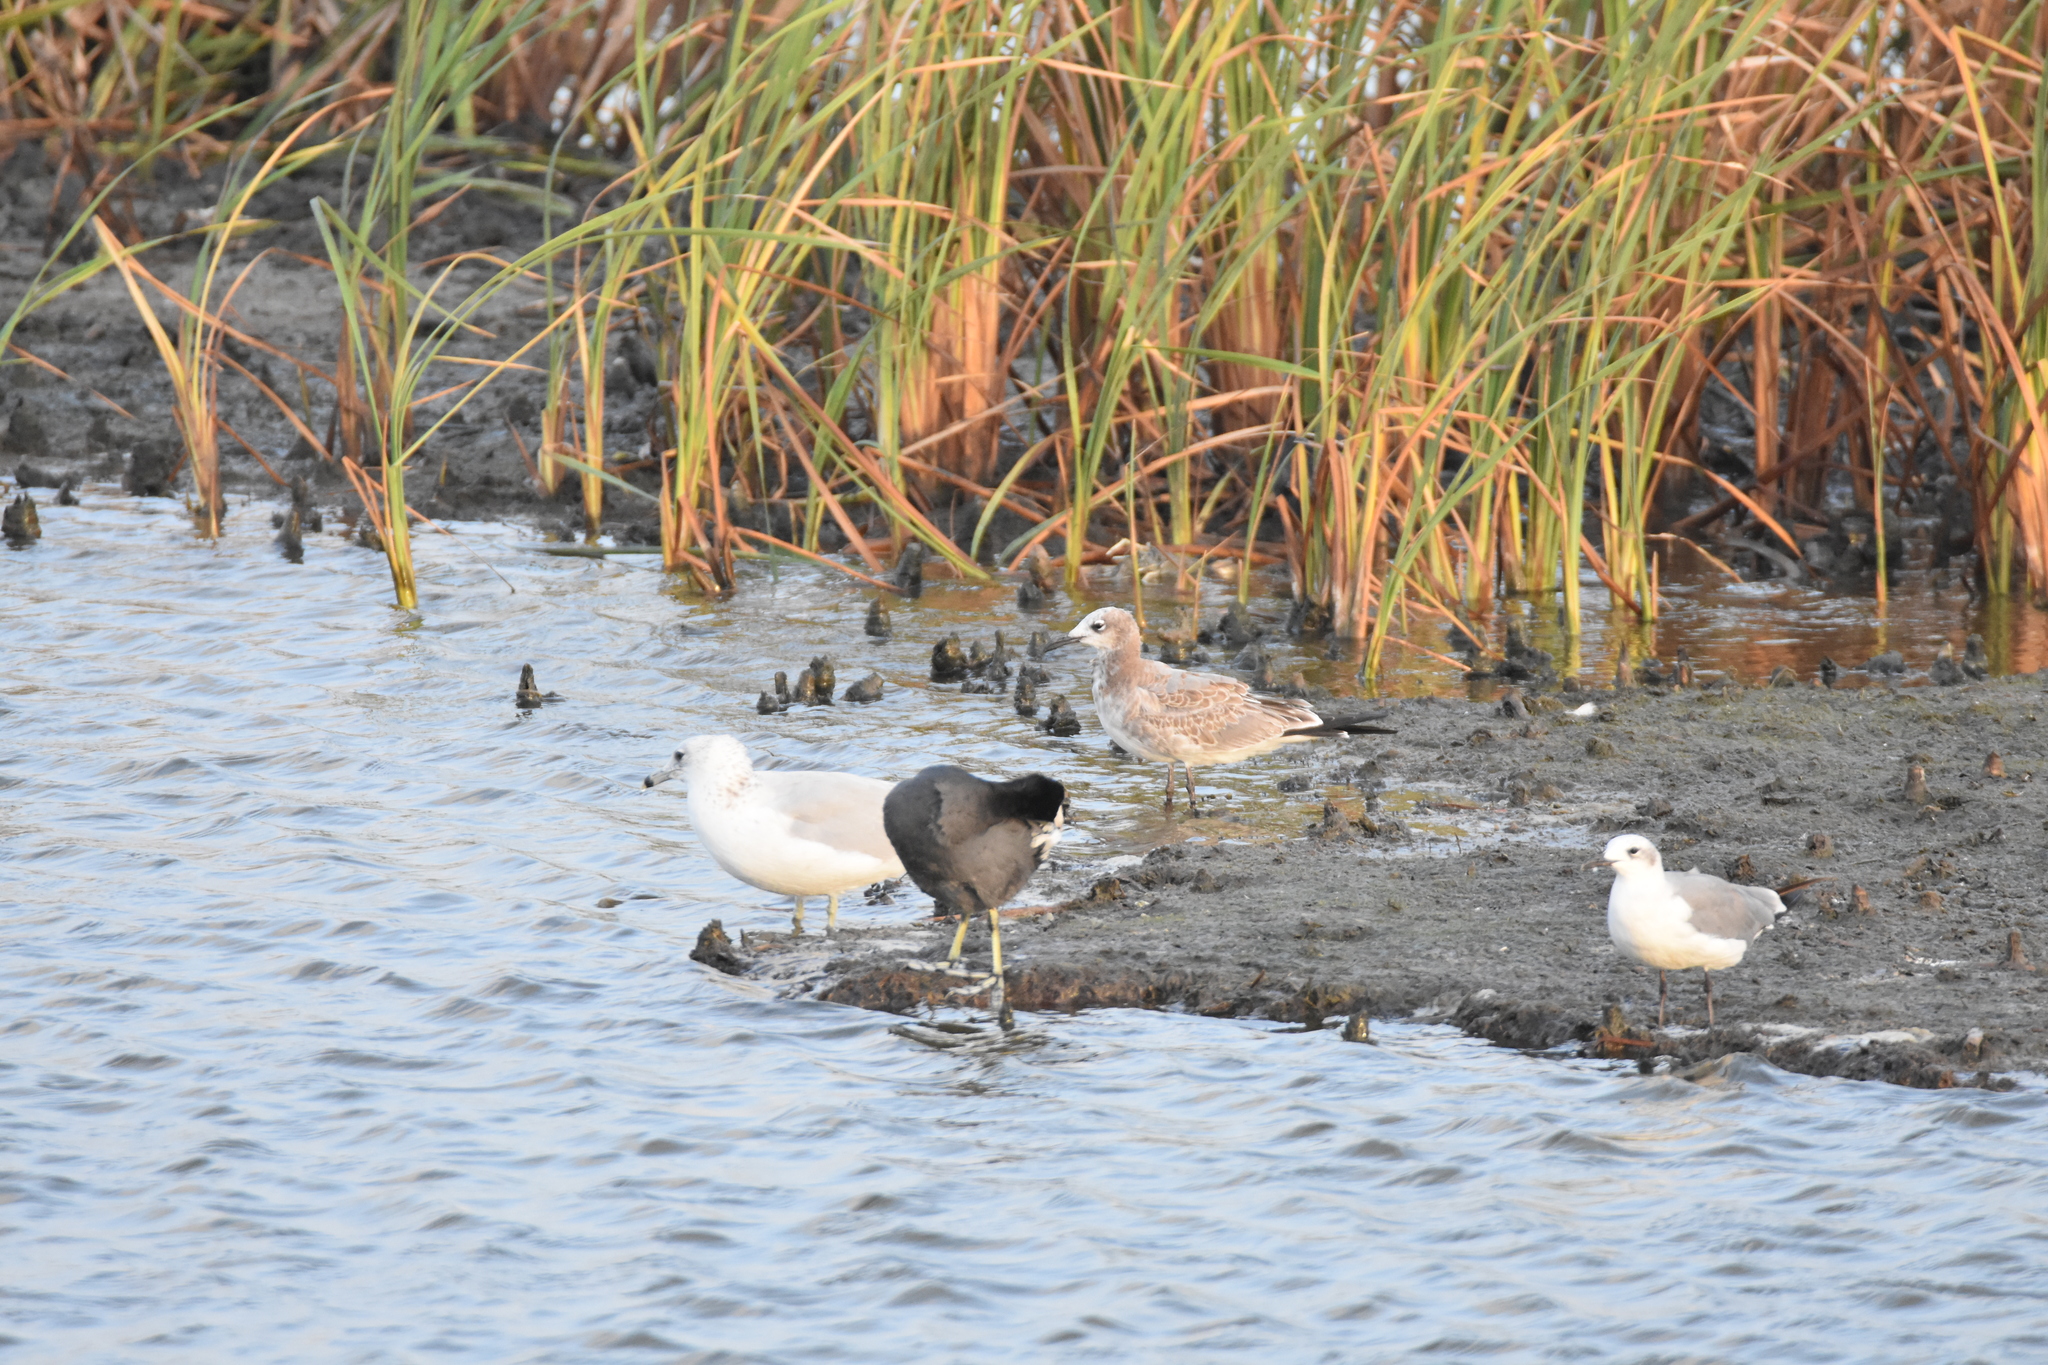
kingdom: Animalia
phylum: Chordata
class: Aves
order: Charadriiformes
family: Laridae
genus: Larus
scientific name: Larus delawarensis
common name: Ring-billed gull
